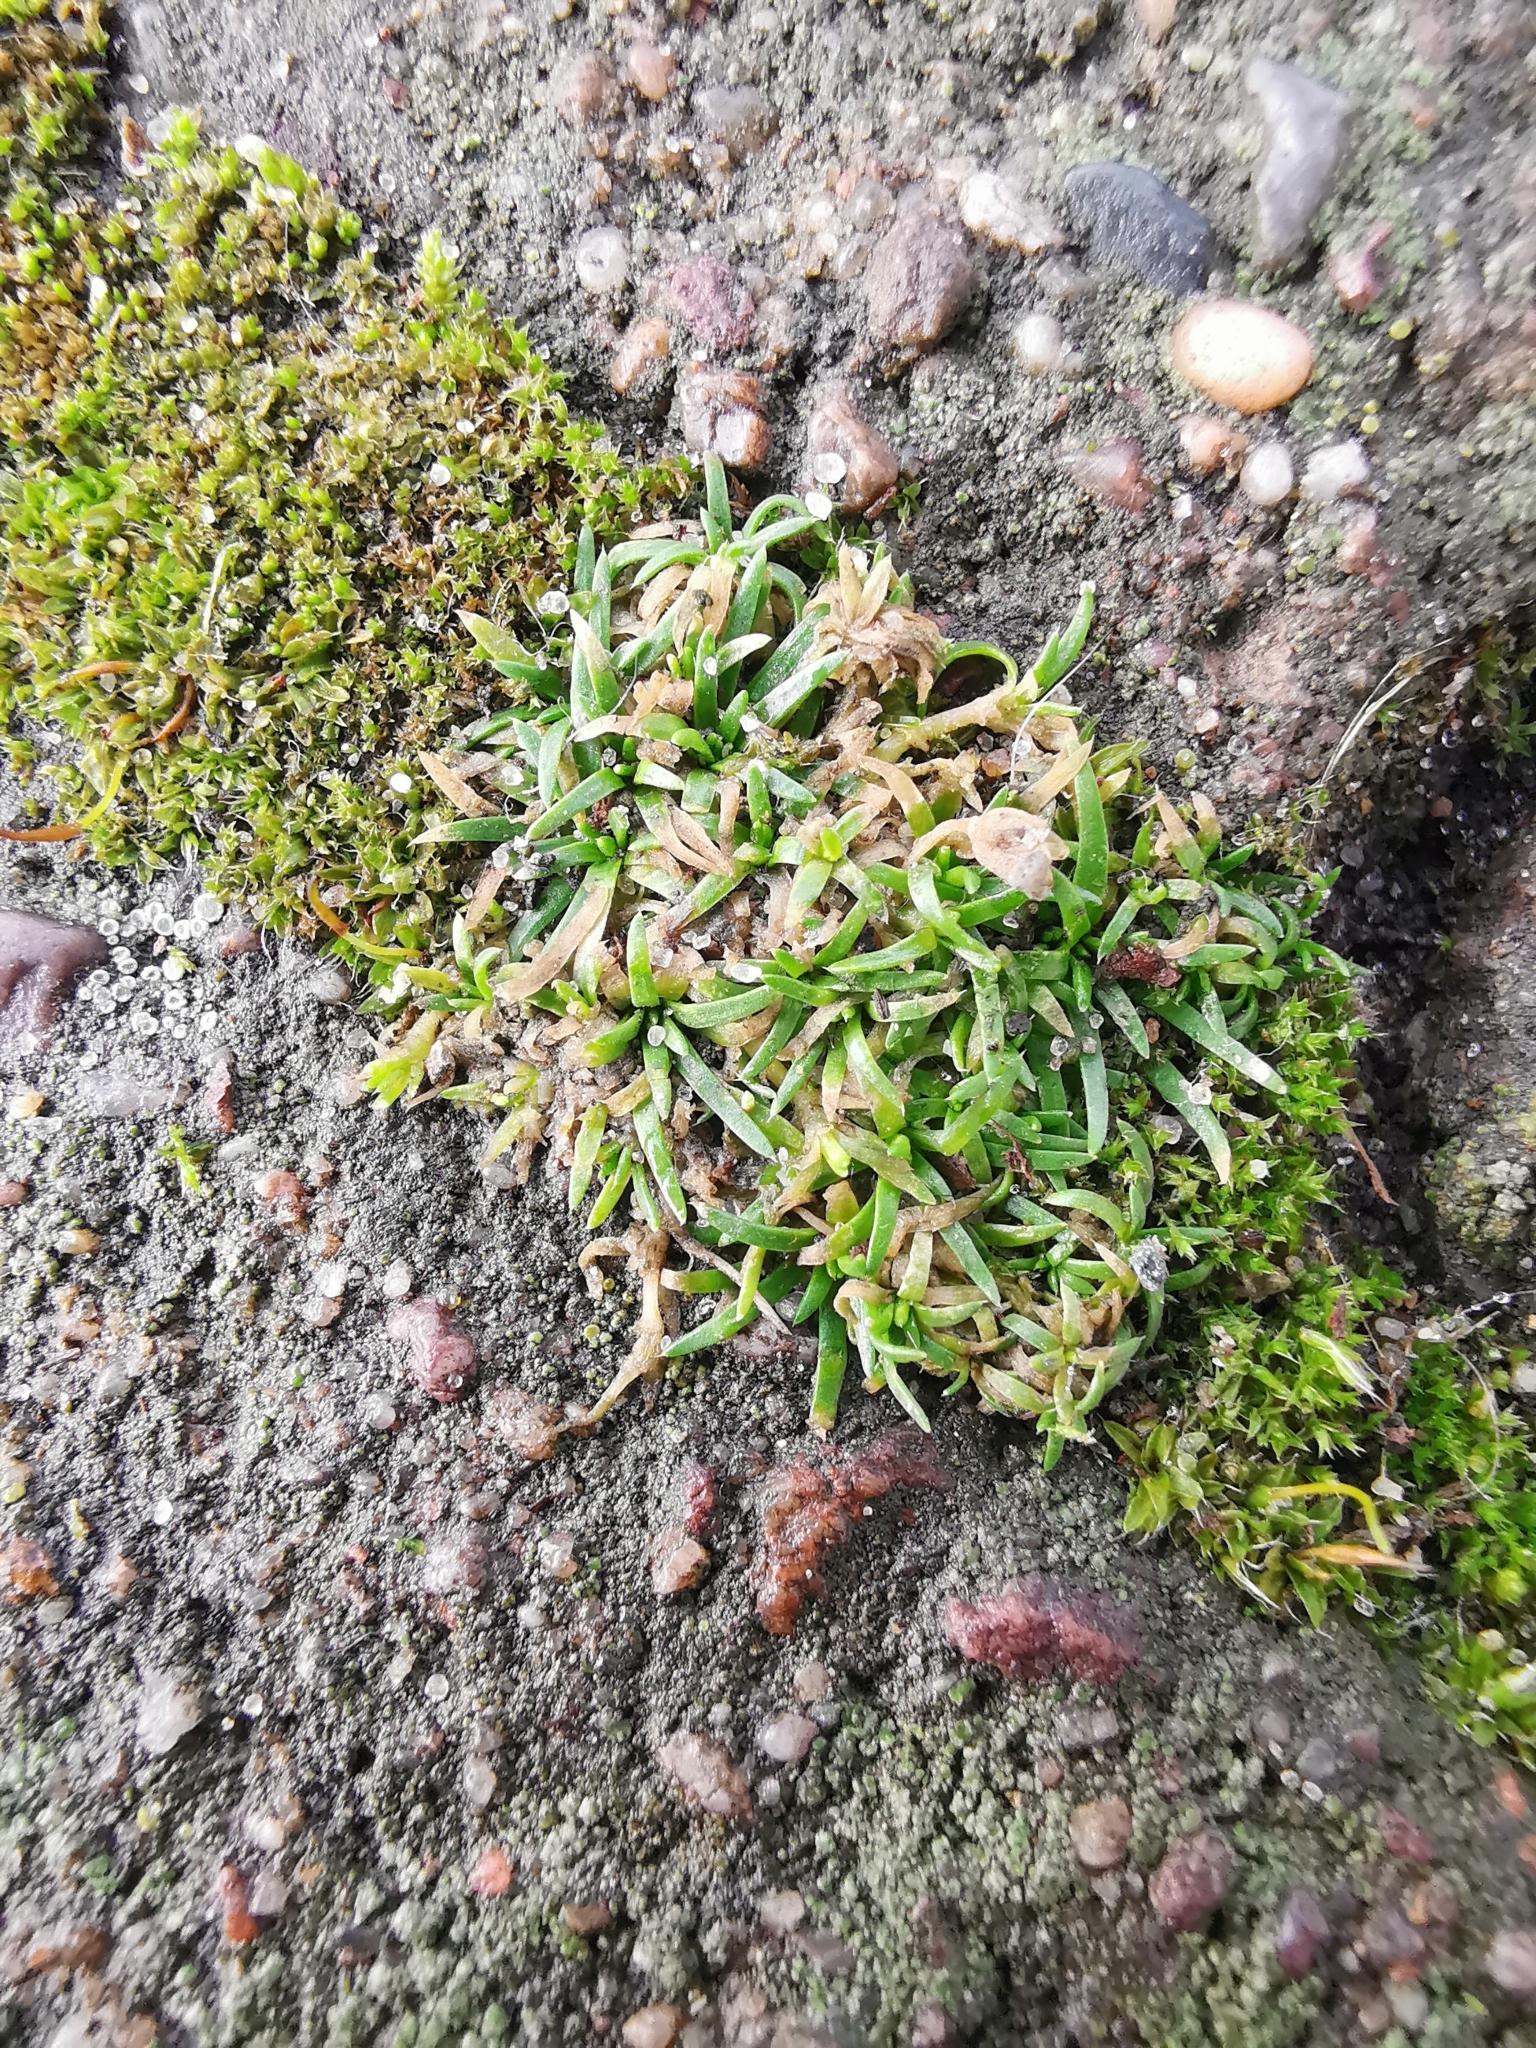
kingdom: Plantae
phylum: Tracheophyta
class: Magnoliopsida
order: Caryophyllales
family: Caryophyllaceae
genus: Sagina
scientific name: Sagina procumbens
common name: Procumbent pearlwort
